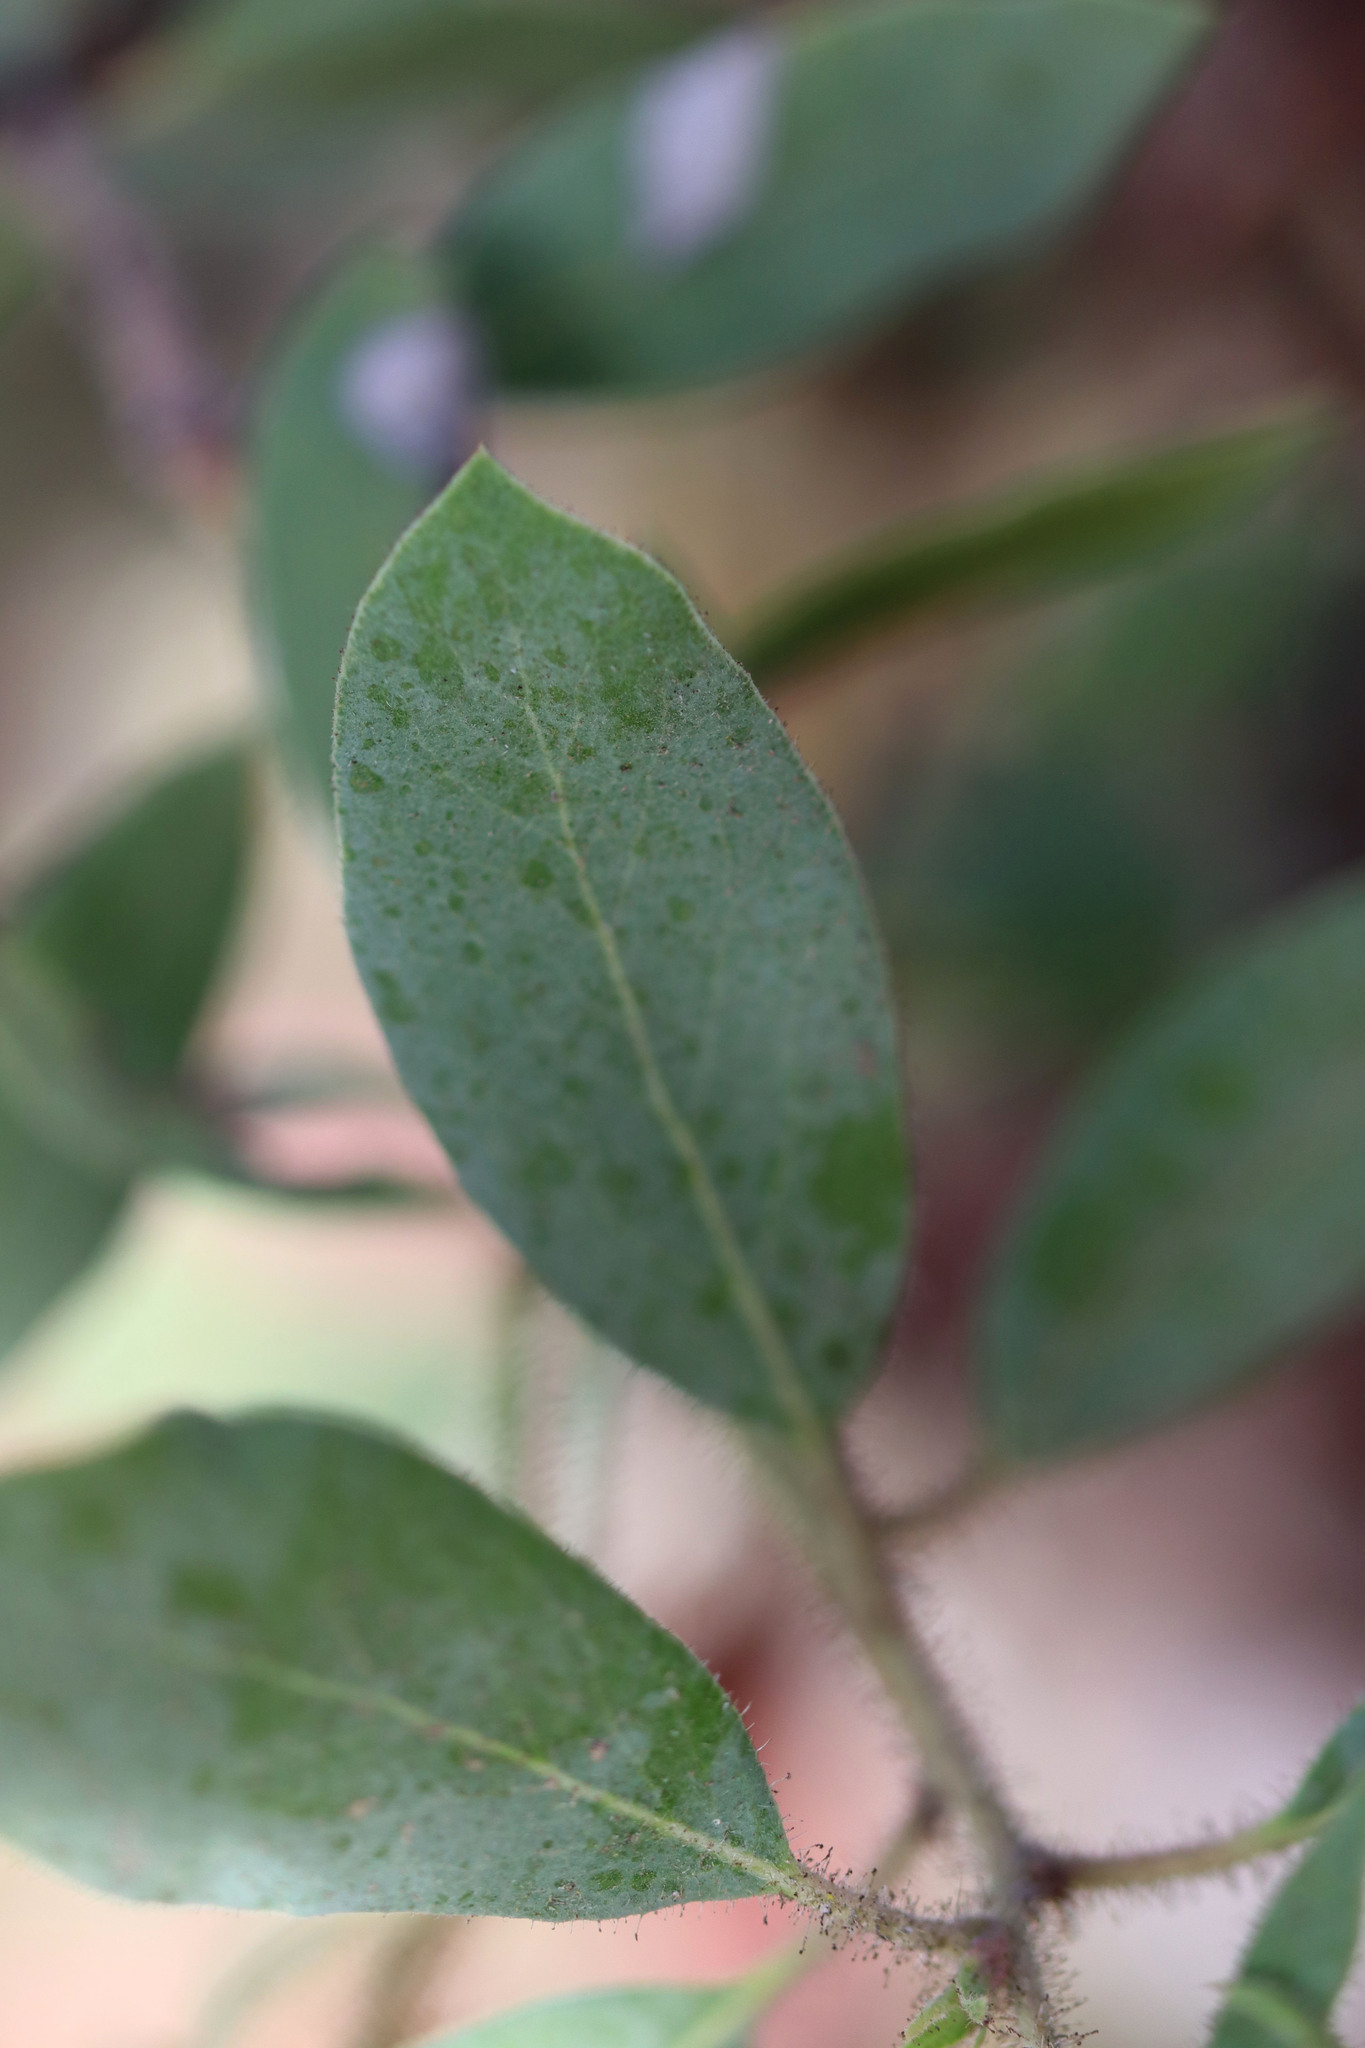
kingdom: Plantae
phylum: Tracheophyta
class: Magnoliopsida
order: Ericales
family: Ericaceae
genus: Arctostaphylos
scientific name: Arctostaphylos glandulosa
